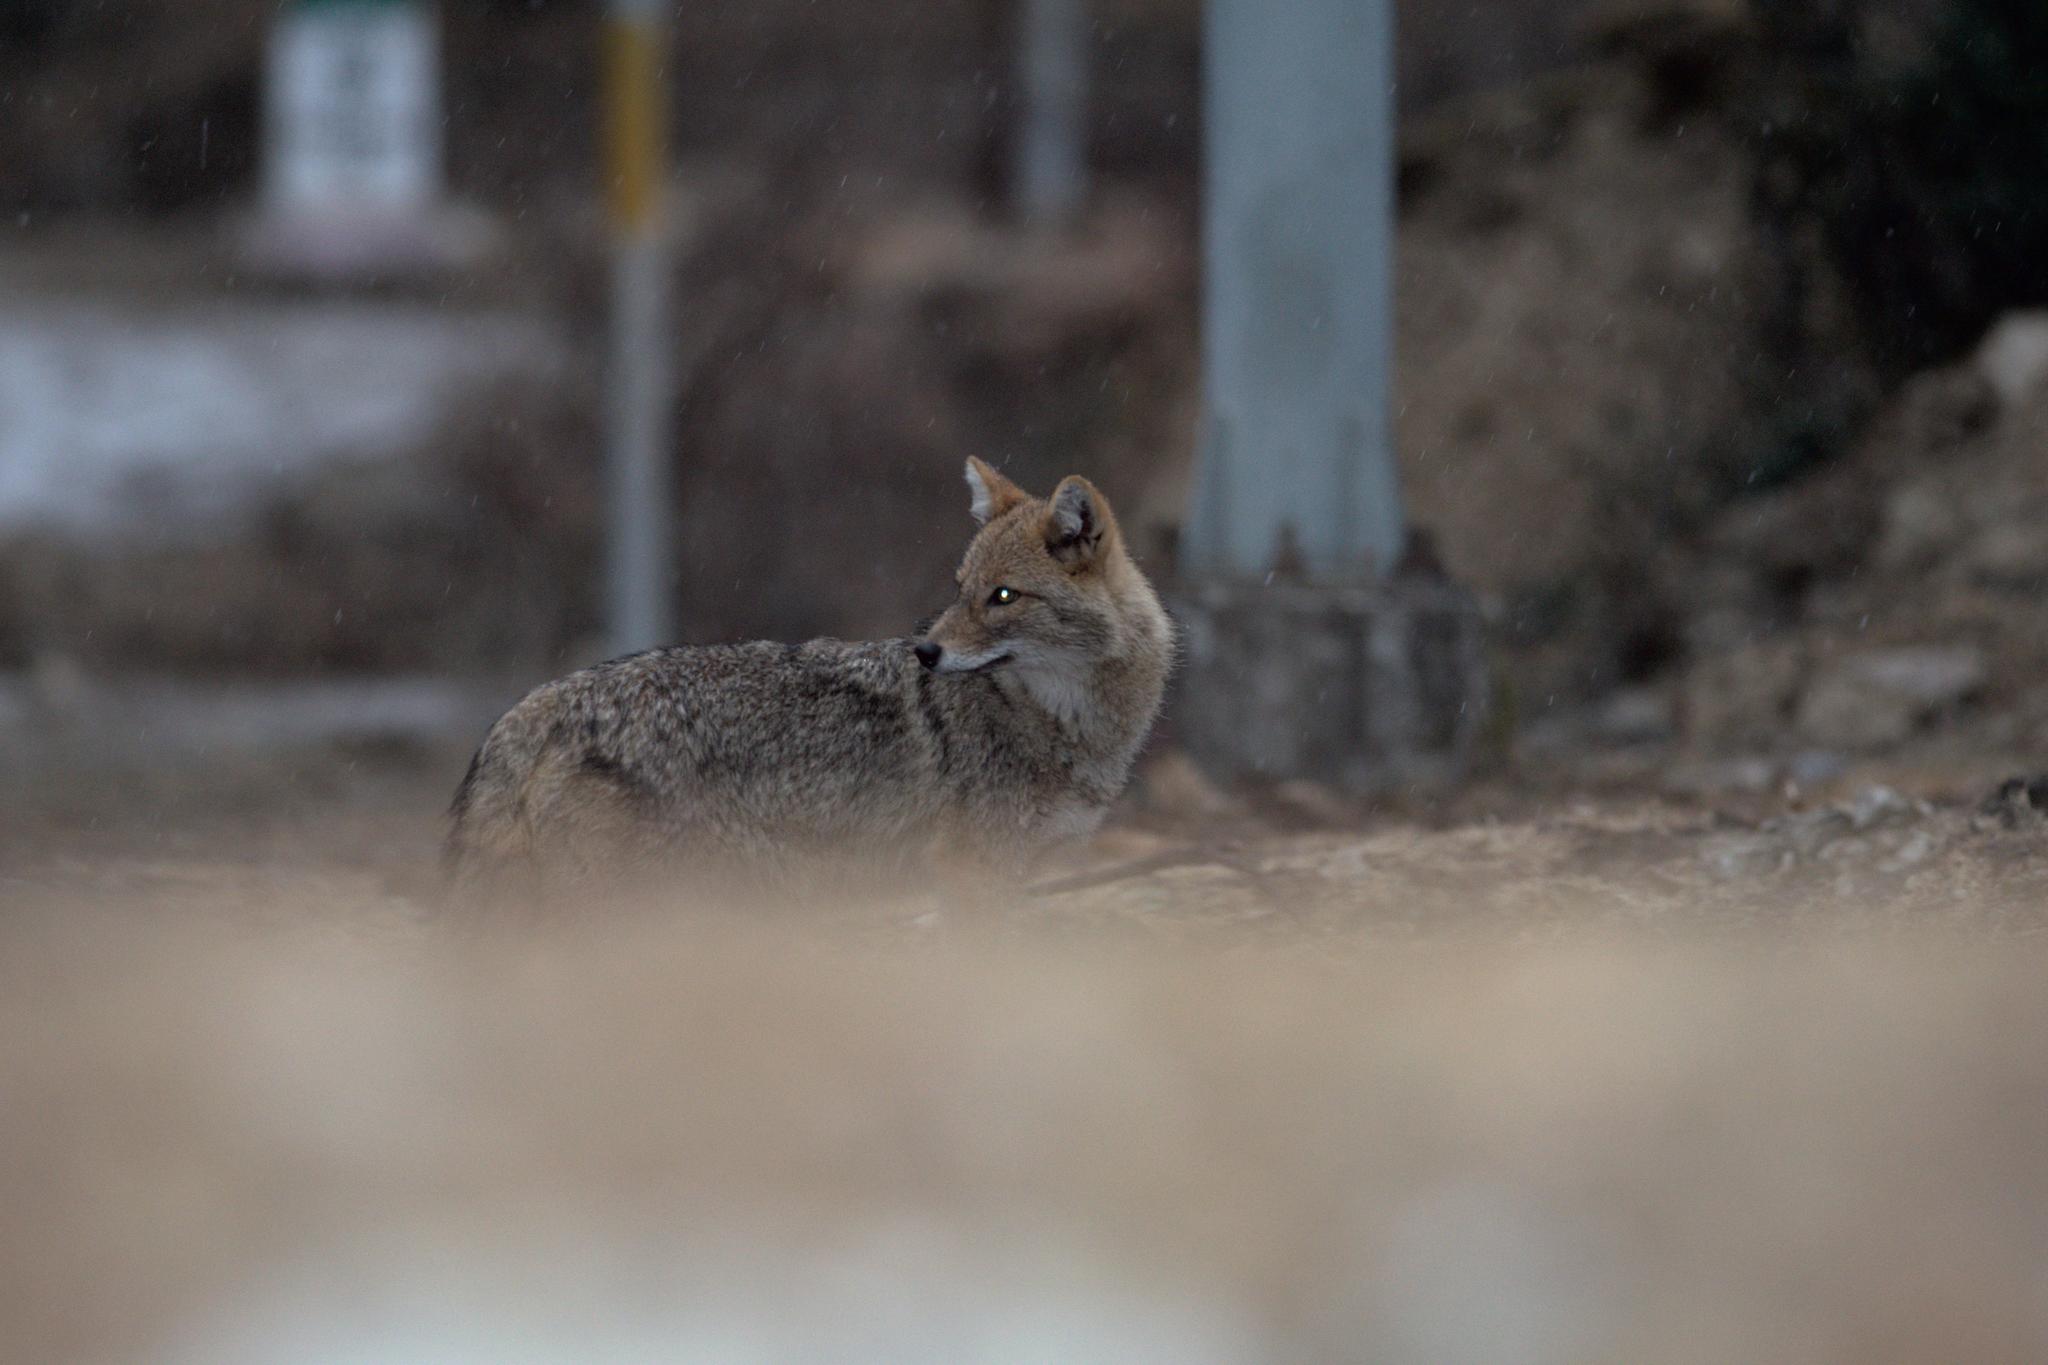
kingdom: Animalia
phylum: Chordata
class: Mammalia
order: Carnivora
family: Canidae
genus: Canis
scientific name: Canis aureus
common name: Golden jackal
